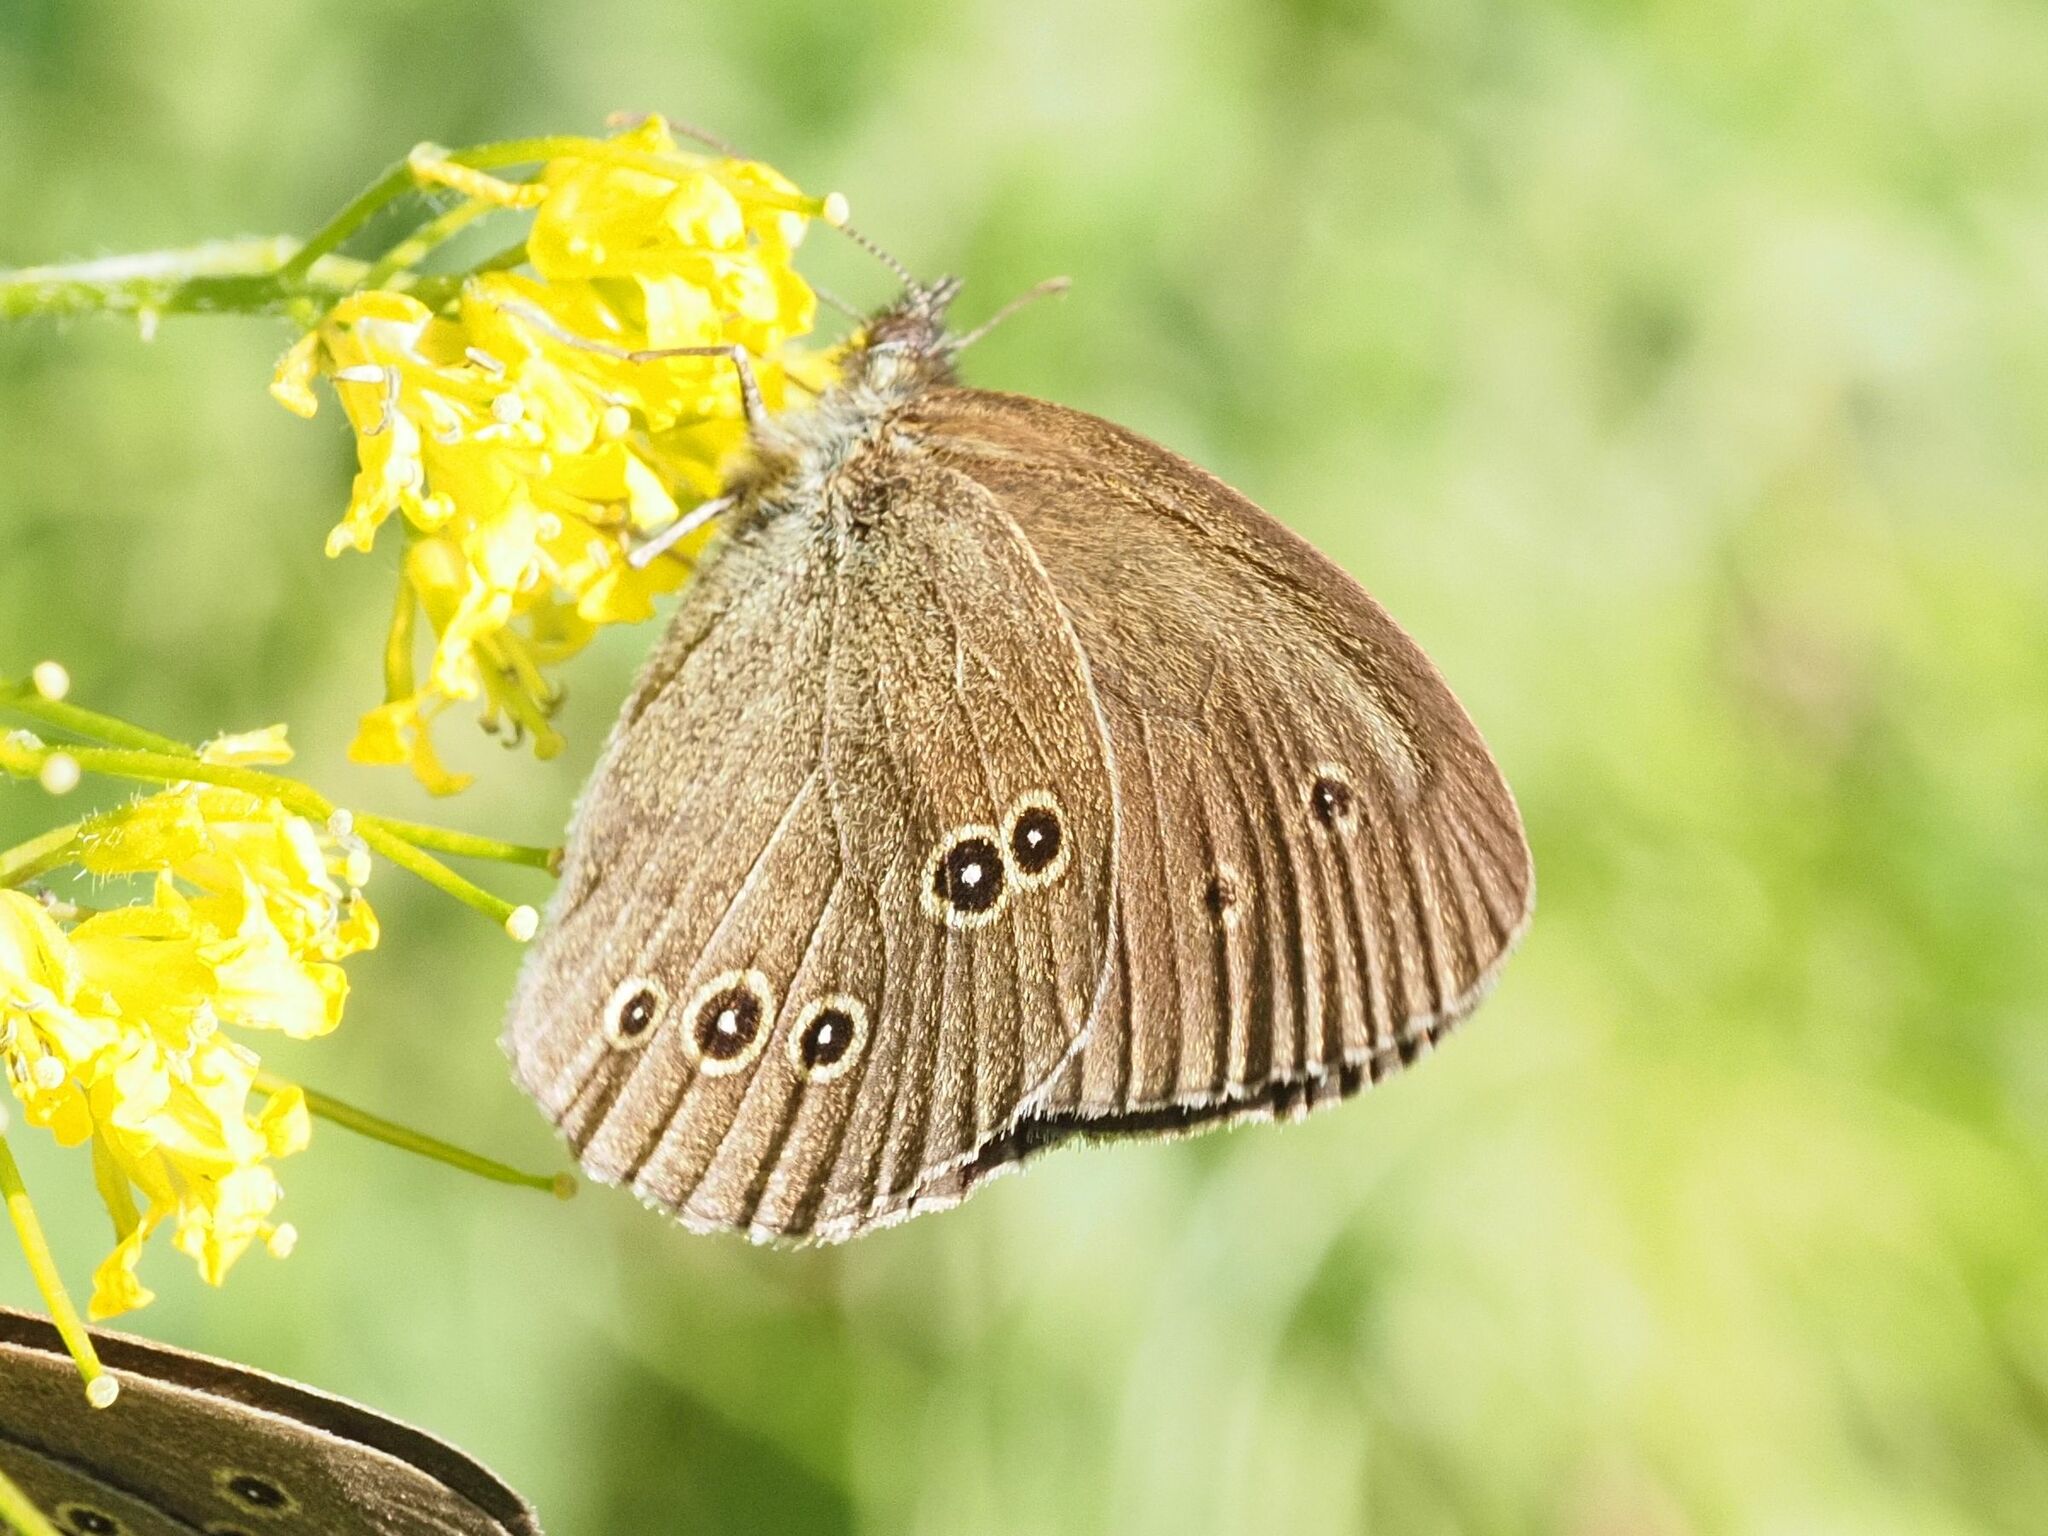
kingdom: Animalia
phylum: Arthropoda
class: Insecta
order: Lepidoptera
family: Nymphalidae
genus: Aphantopus
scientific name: Aphantopus hyperantus
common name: Ringlet
